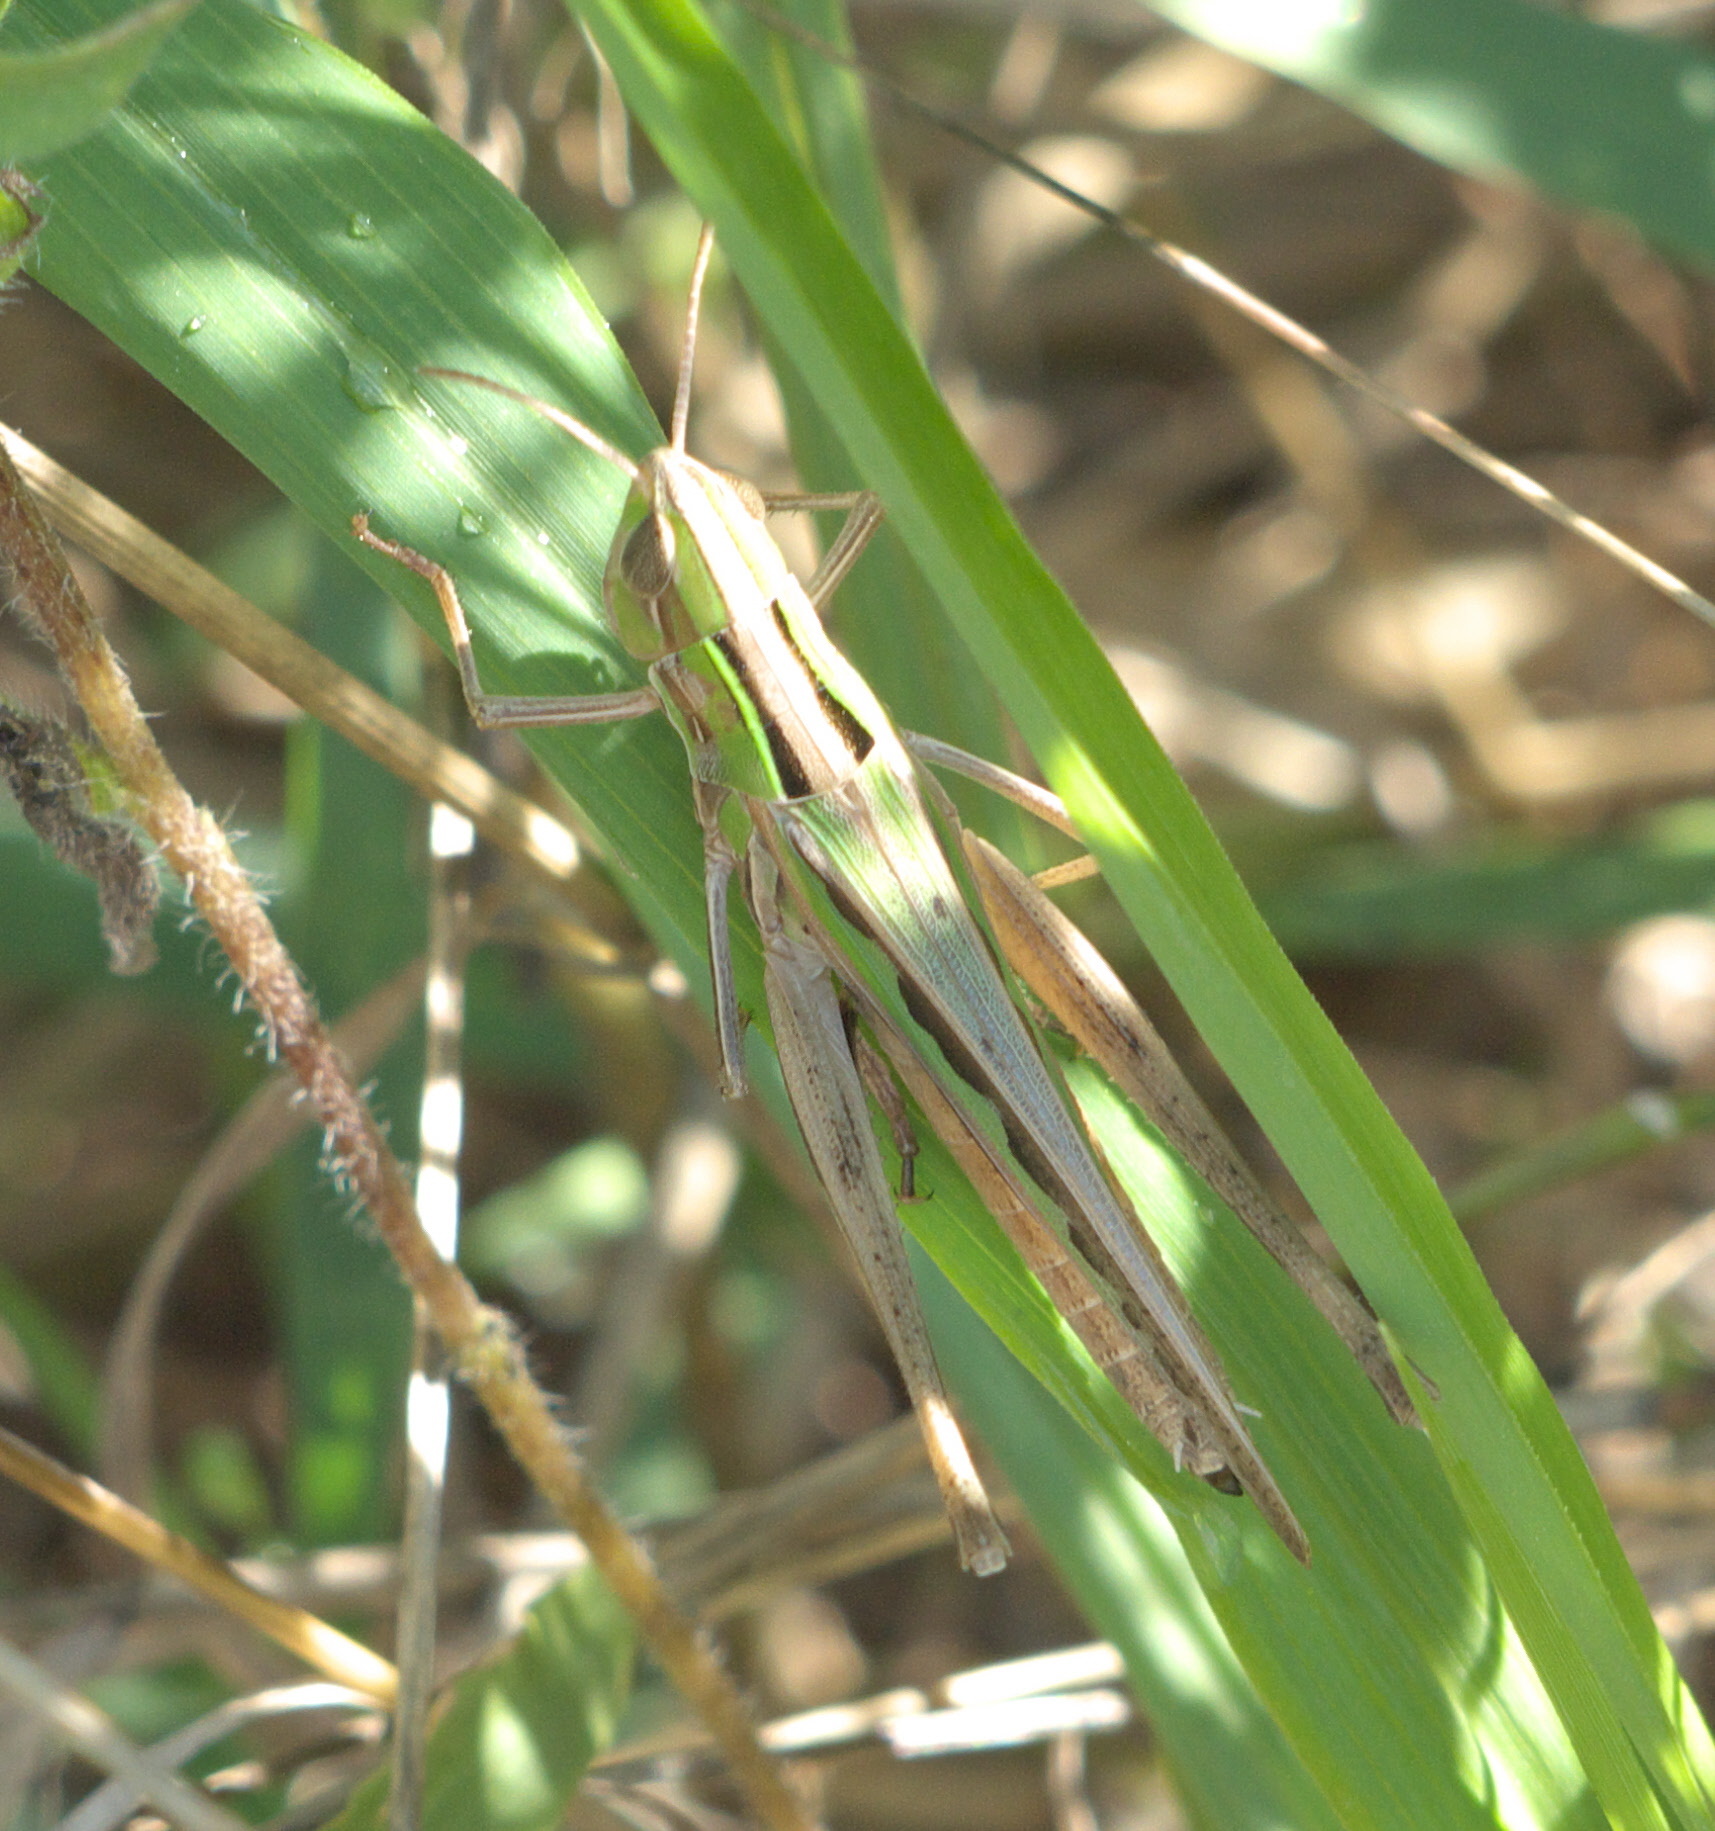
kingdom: Animalia
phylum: Arthropoda
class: Insecta
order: Orthoptera
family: Acrididae
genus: Syrbula
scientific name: Syrbula admirabilis
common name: Handsome grasshopper
